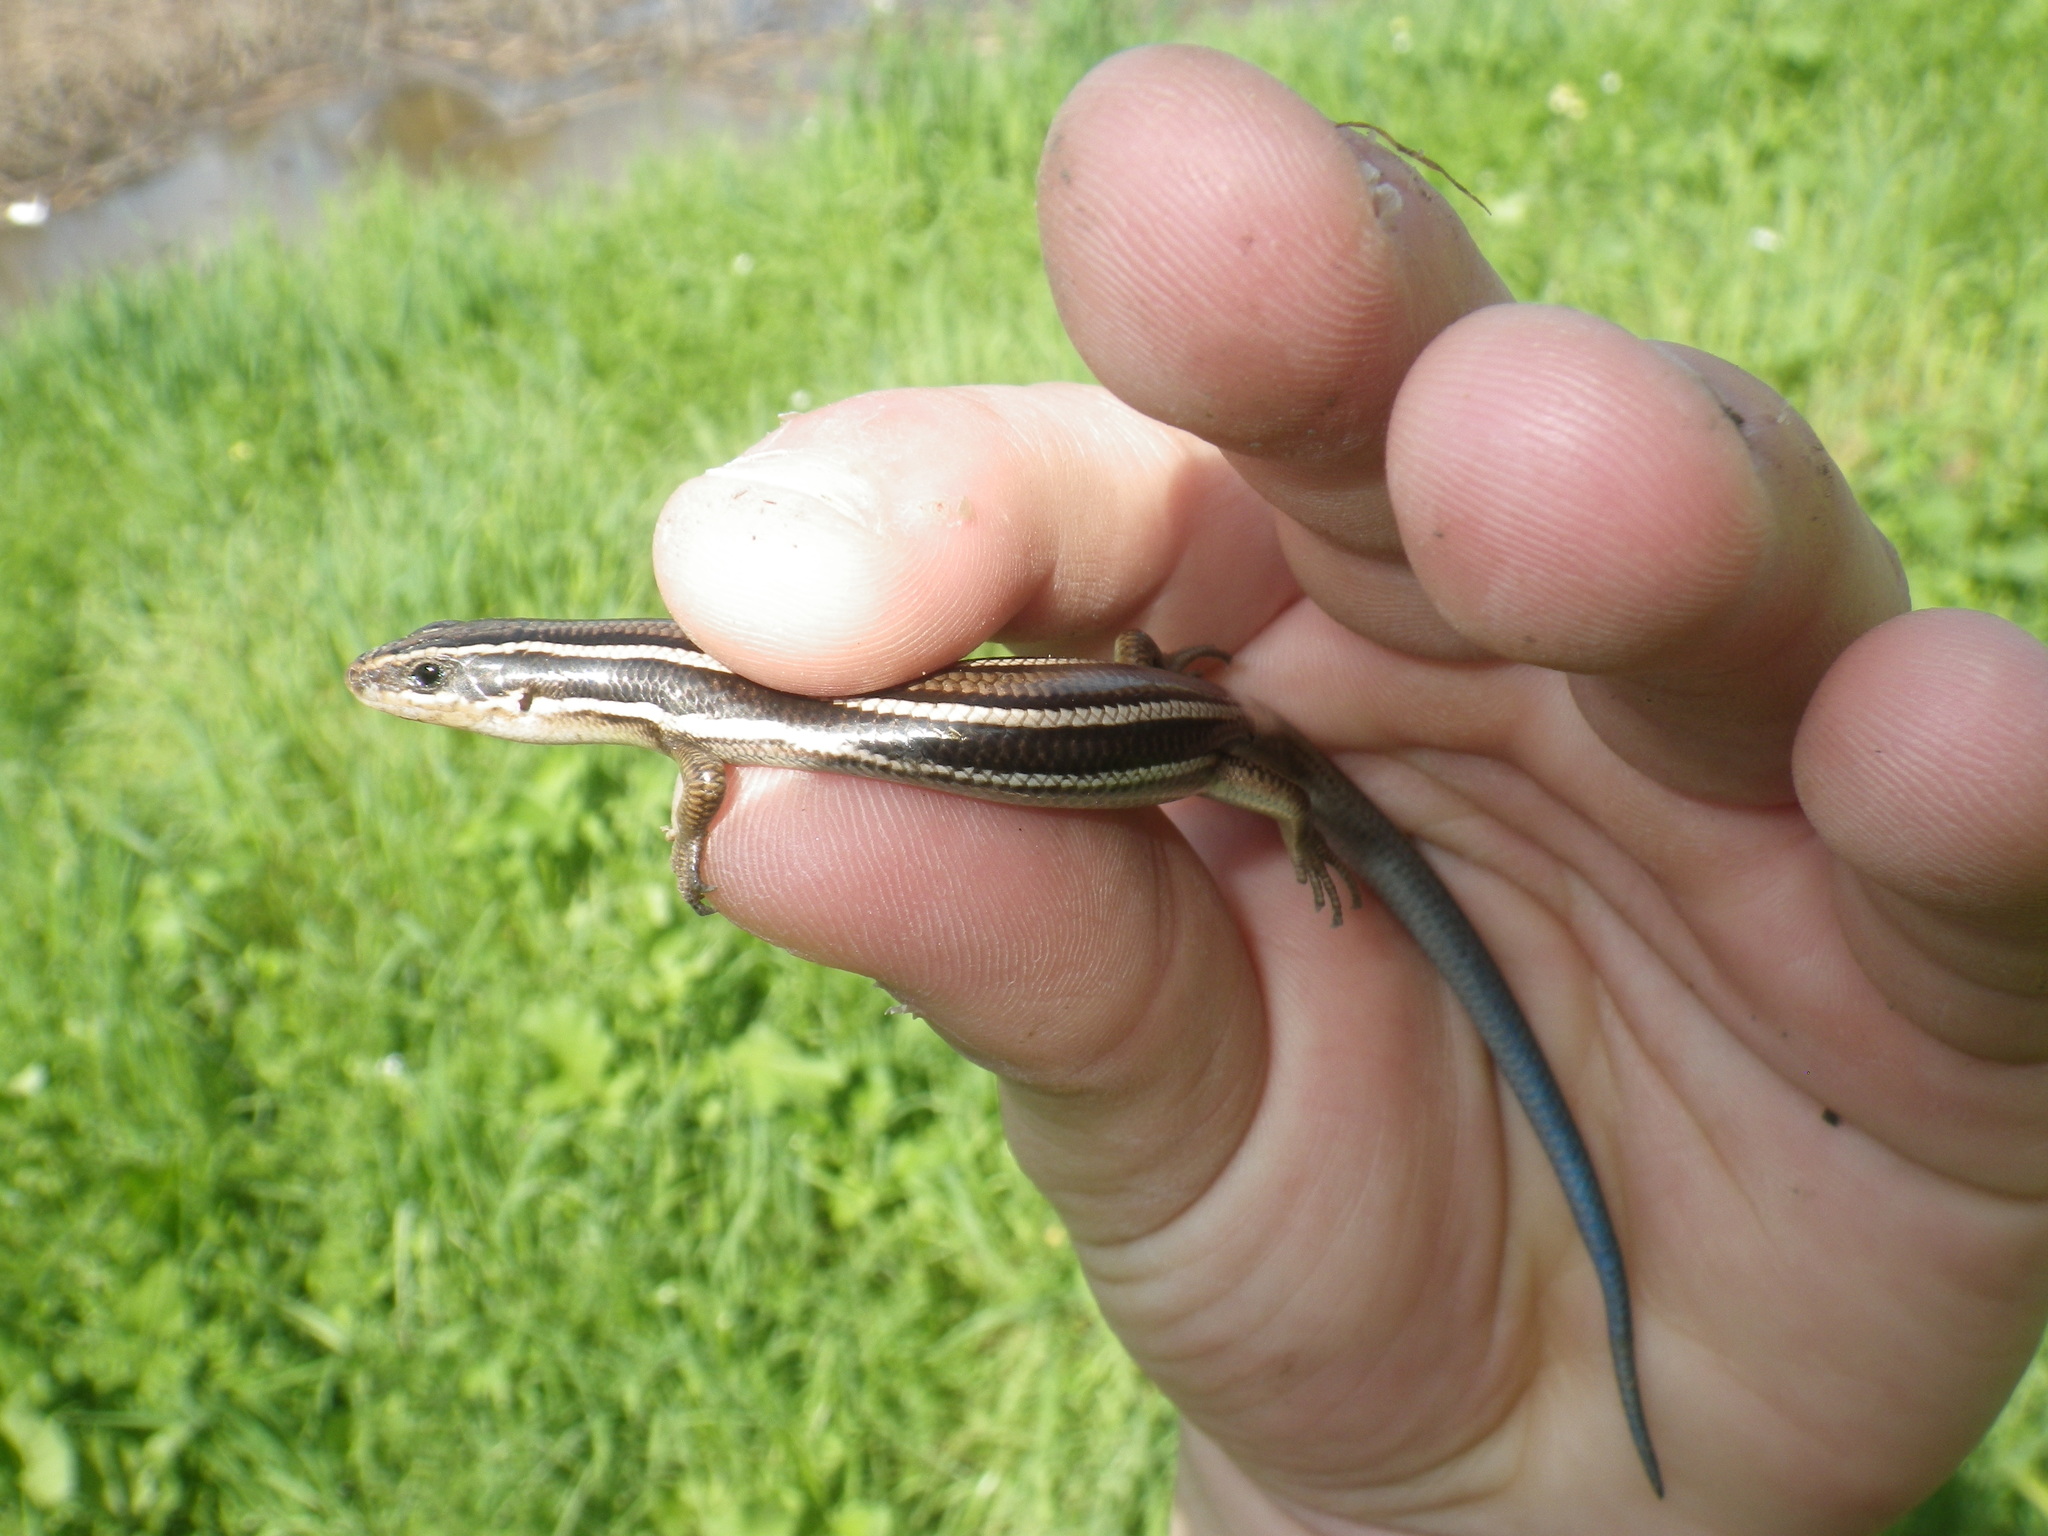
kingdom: Animalia
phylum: Chordata
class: Squamata
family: Scincidae
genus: Plestiodon
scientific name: Plestiodon gilberti
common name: Gilbert's skink
